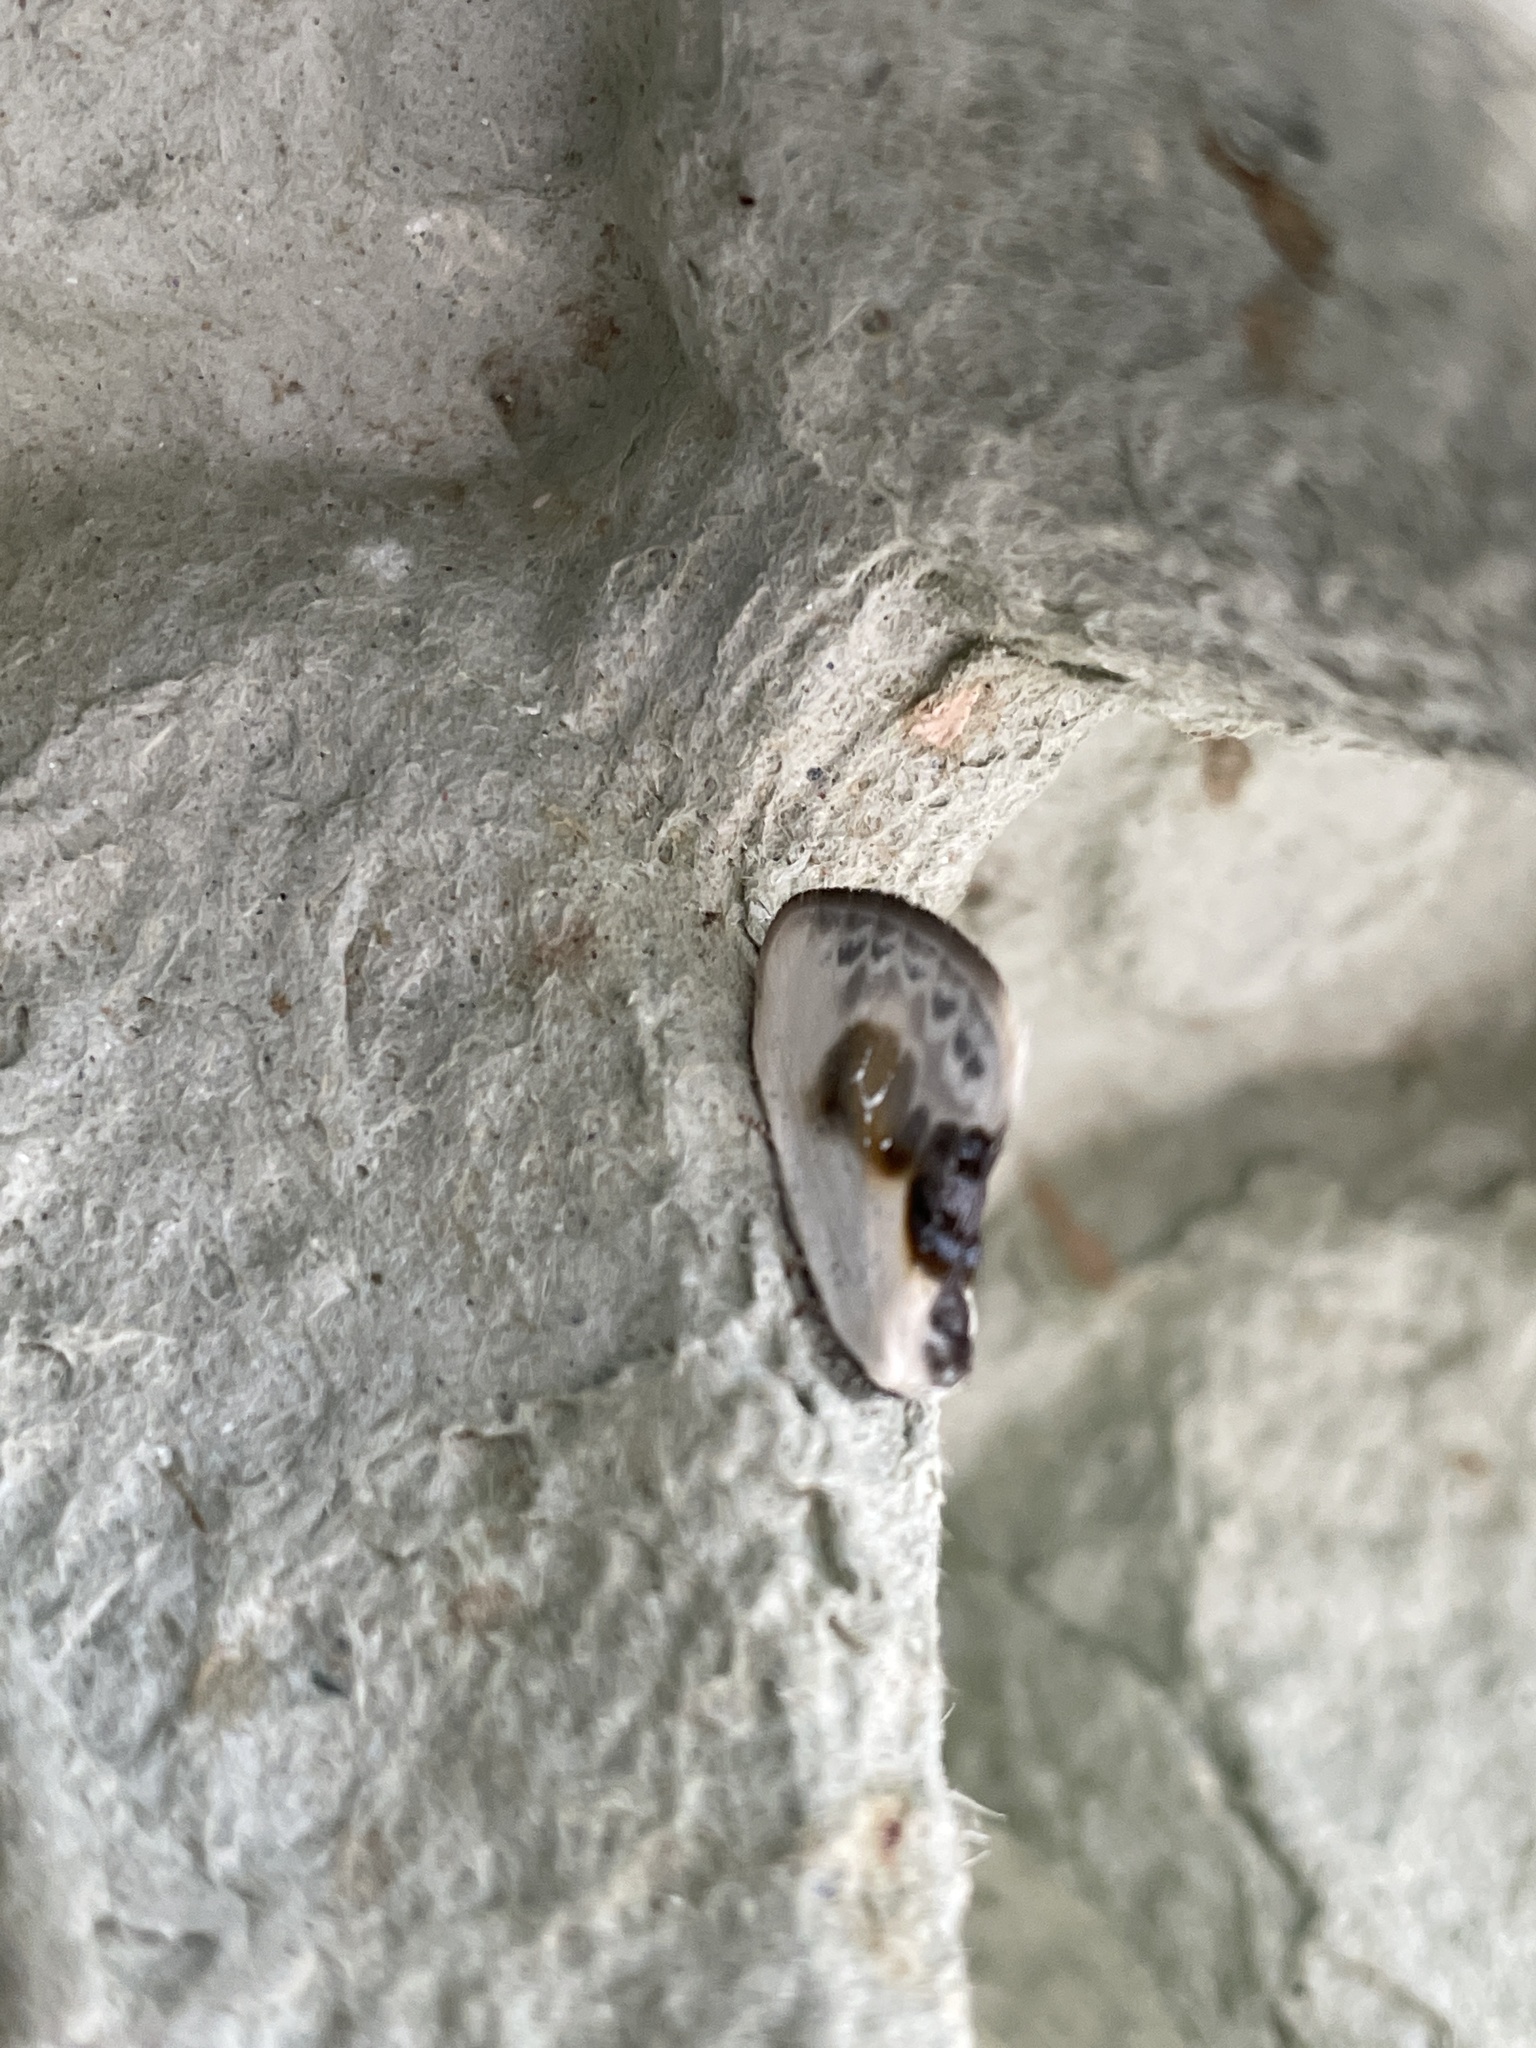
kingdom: Animalia
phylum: Arthropoda
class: Insecta
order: Lepidoptera
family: Drepanidae
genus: Cilix
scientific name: Cilix glaucata
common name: Chinese character
